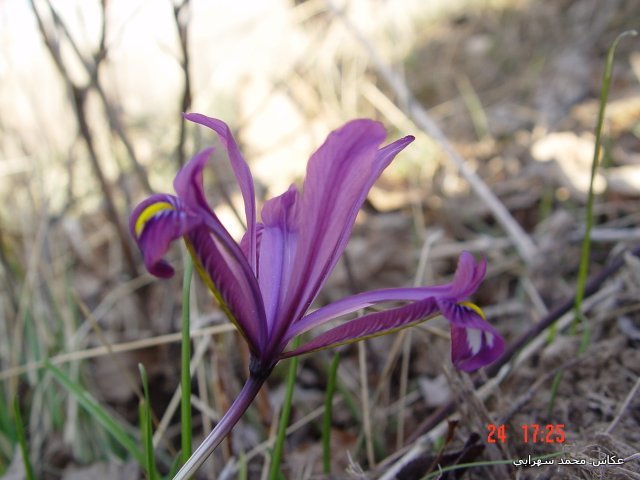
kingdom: Plantae
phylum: Tracheophyta
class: Liliopsida
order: Asparagales
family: Iridaceae
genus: Iris
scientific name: Iris reticulata
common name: Netted iris
